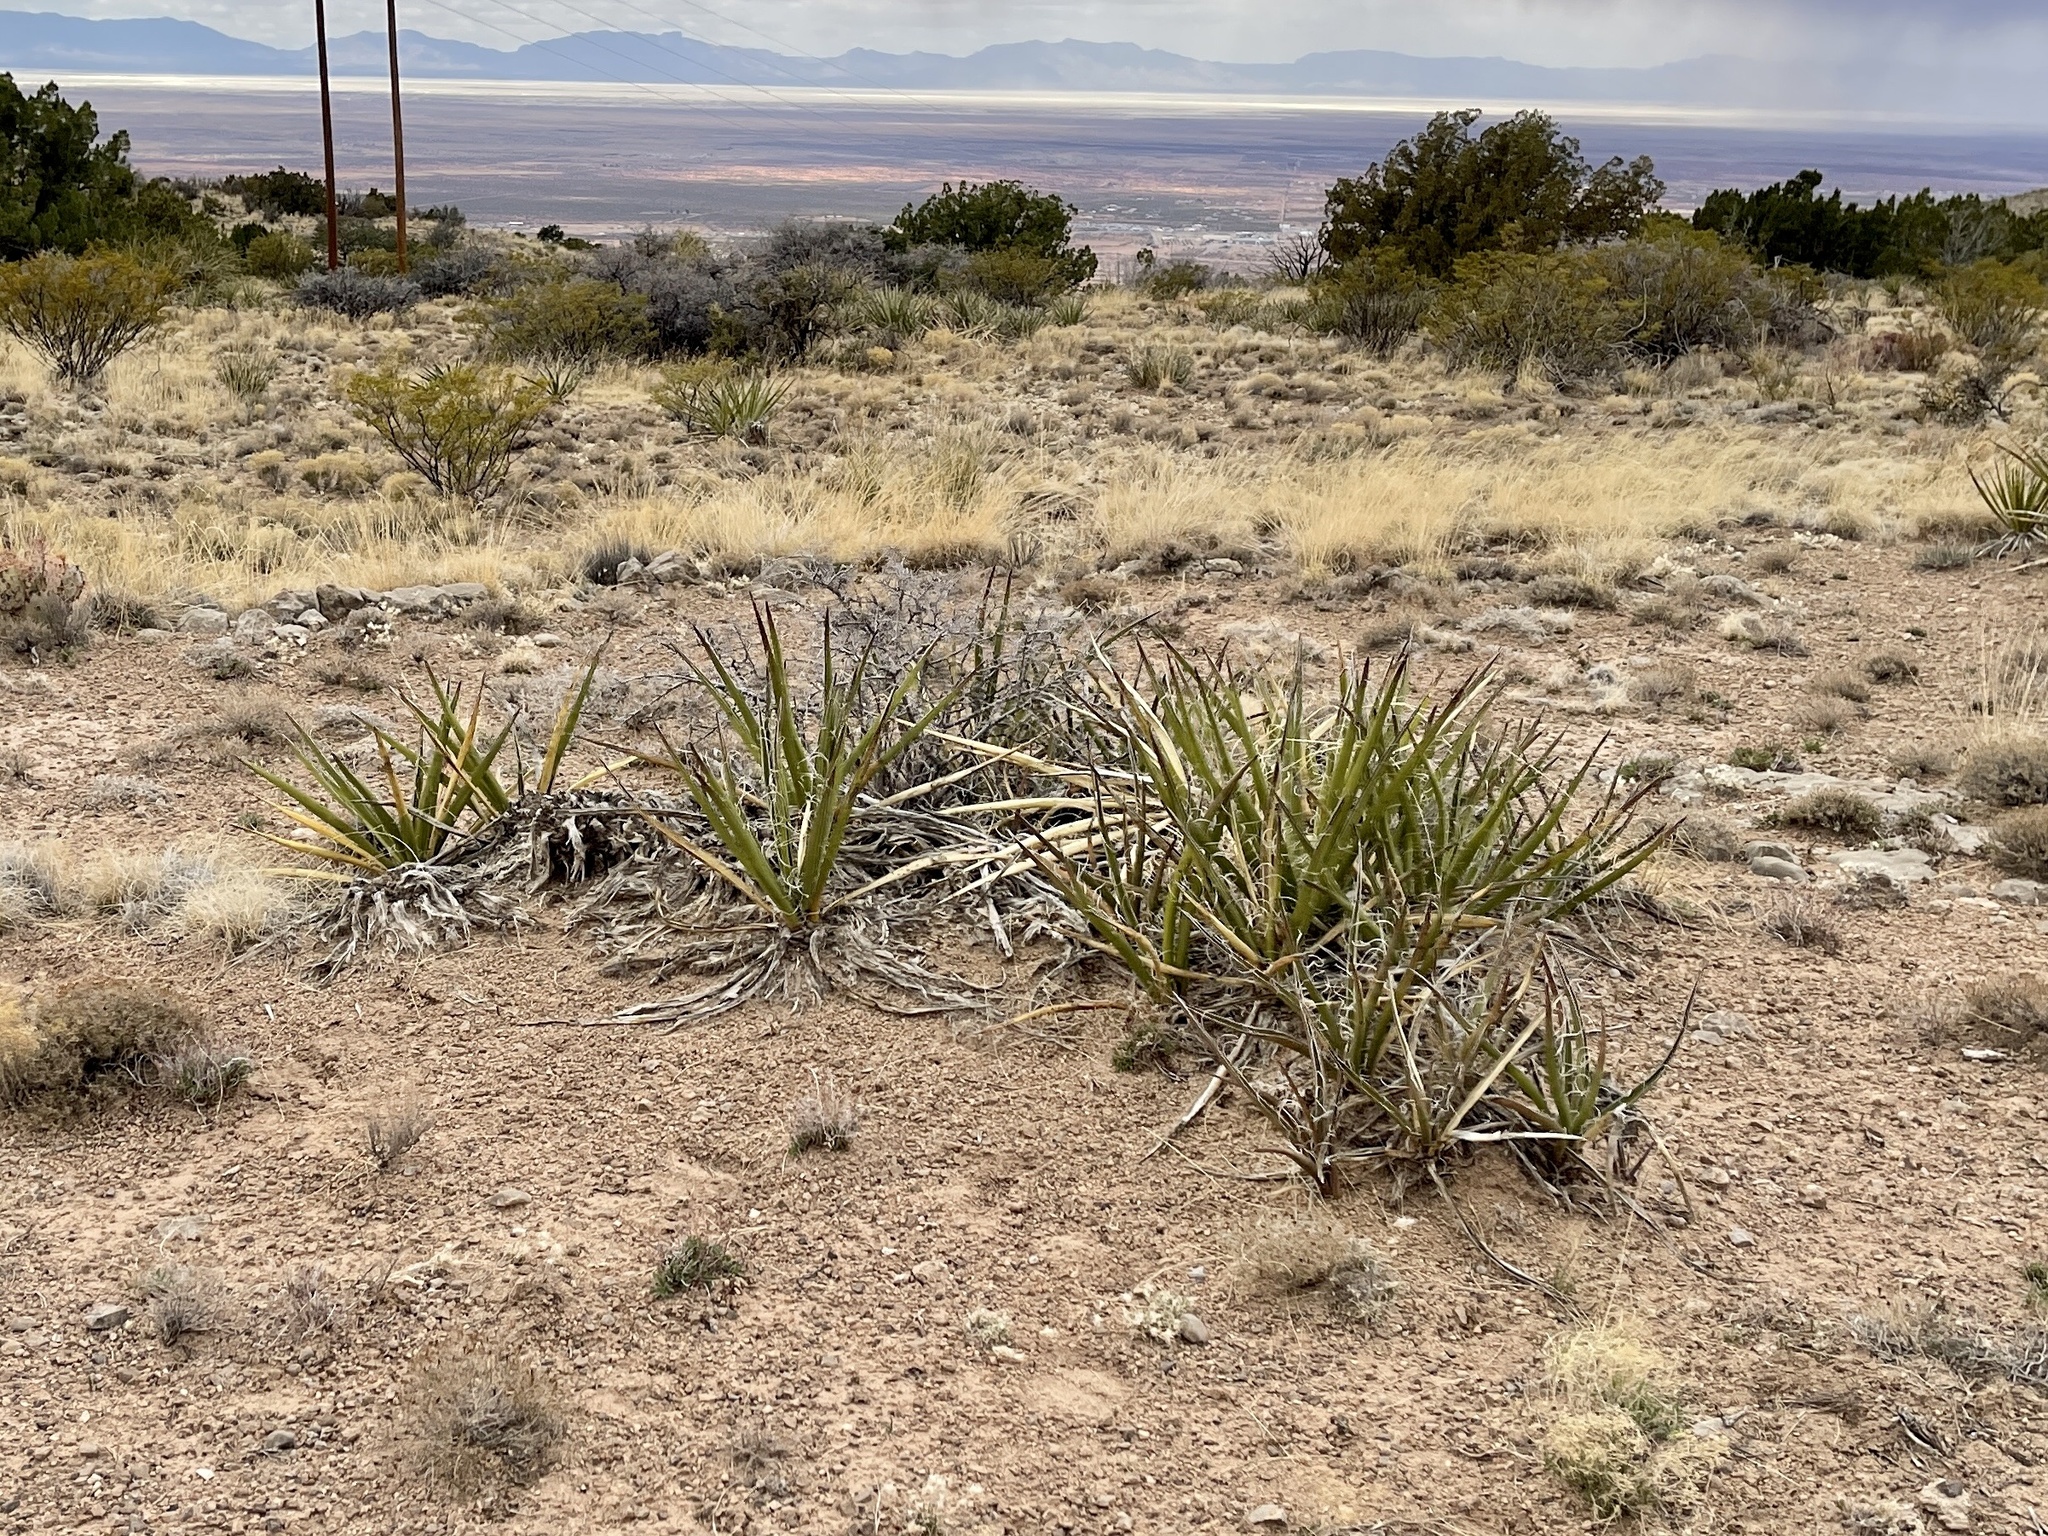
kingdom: Plantae
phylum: Tracheophyta
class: Liliopsida
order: Asparagales
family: Asparagaceae
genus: Yucca
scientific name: Yucca baccata
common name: Banana yucca
